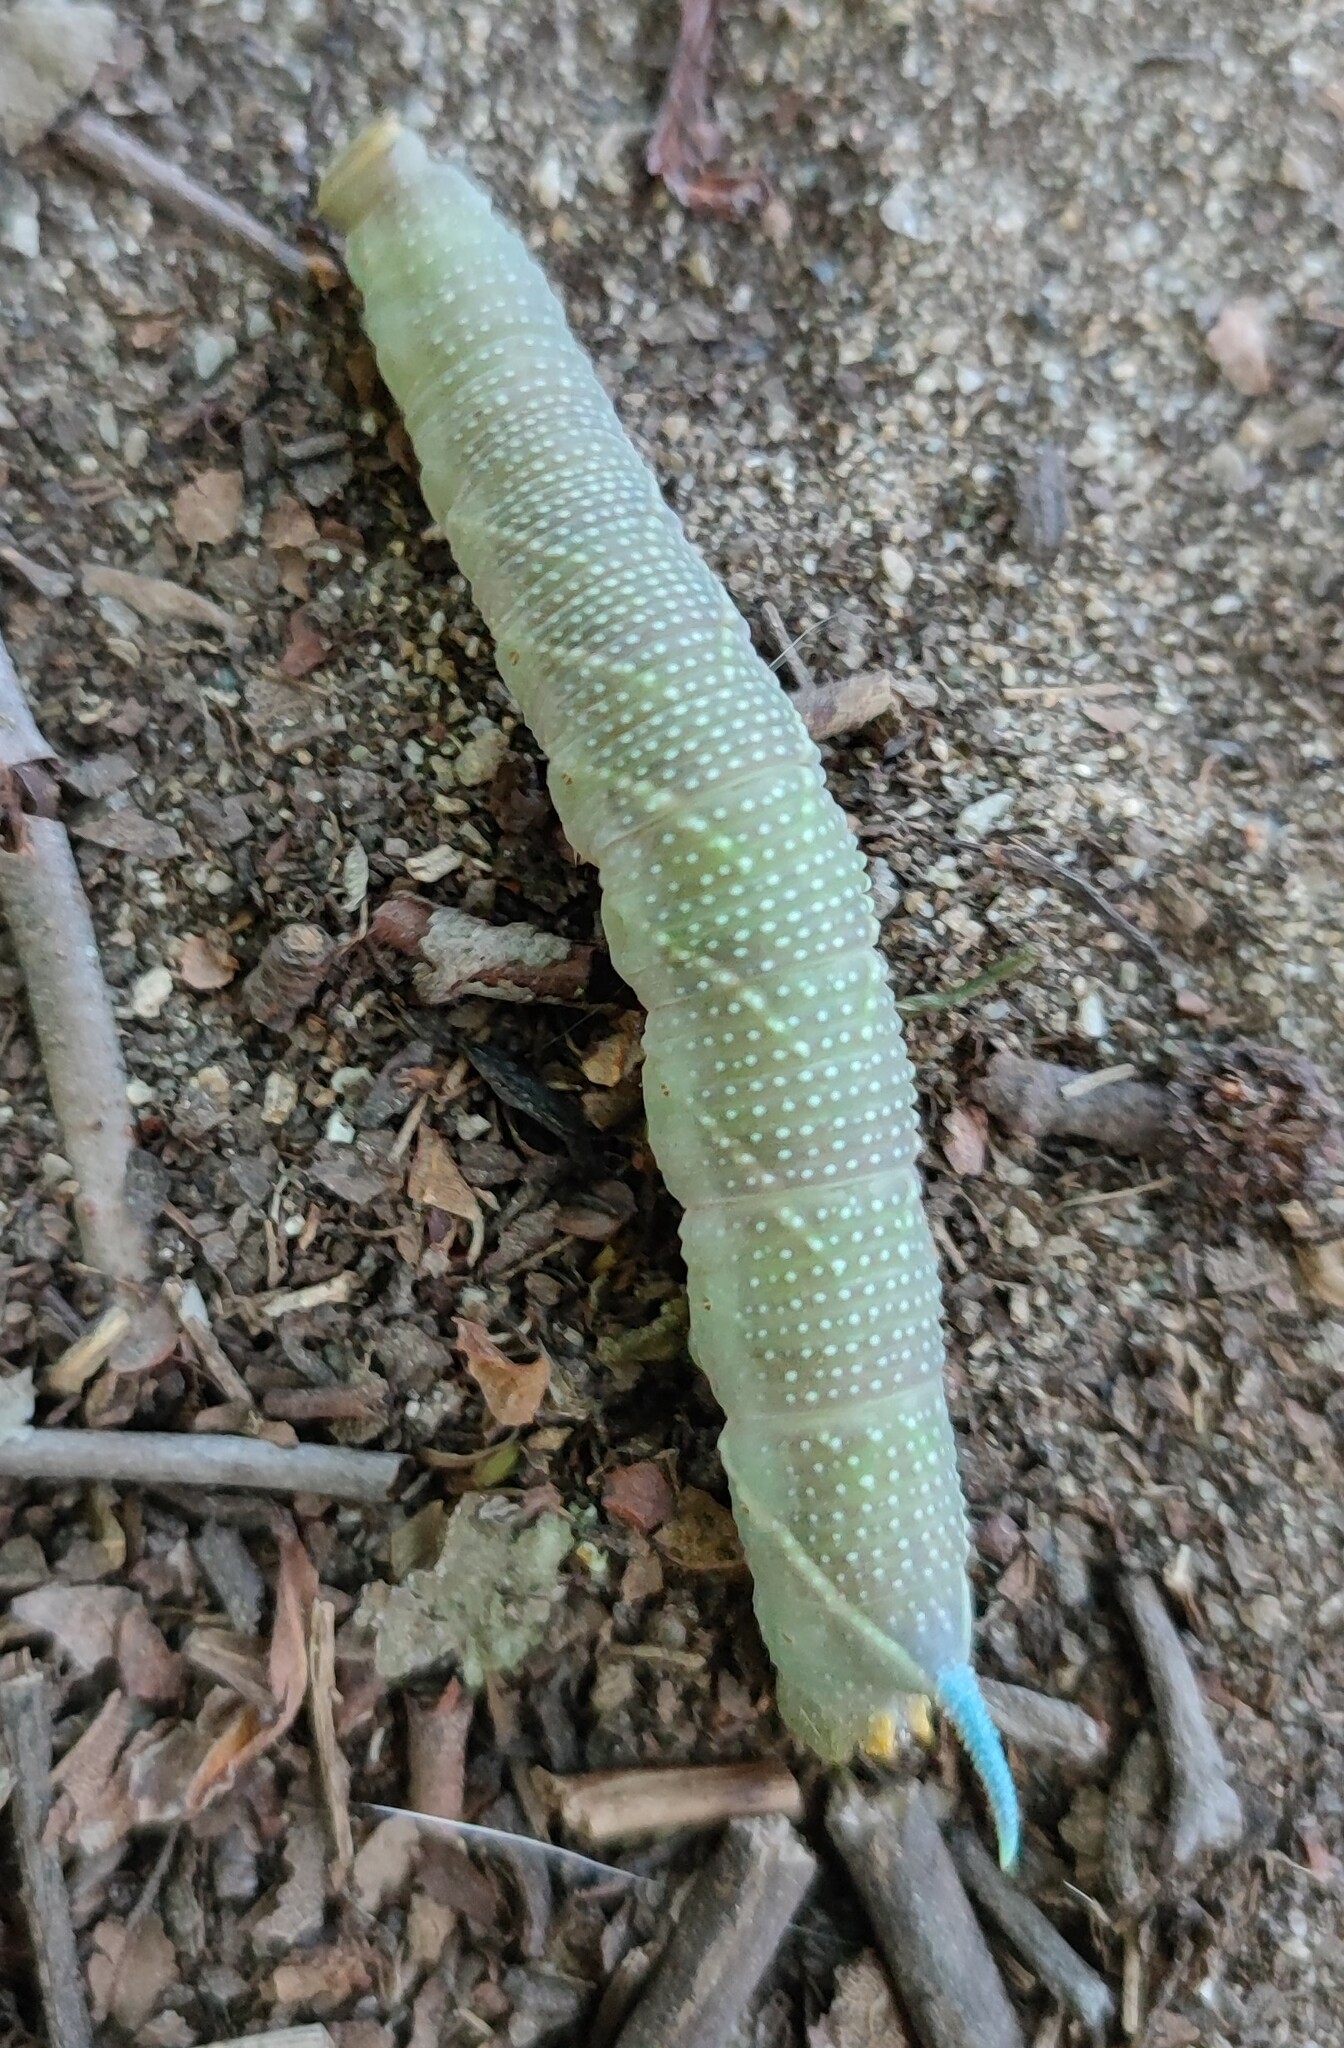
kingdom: Animalia
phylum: Arthropoda
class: Insecta
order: Lepidoptera
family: Sphingidae
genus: Mimas
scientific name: Mimas tiliae
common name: Lime hawk-moth
